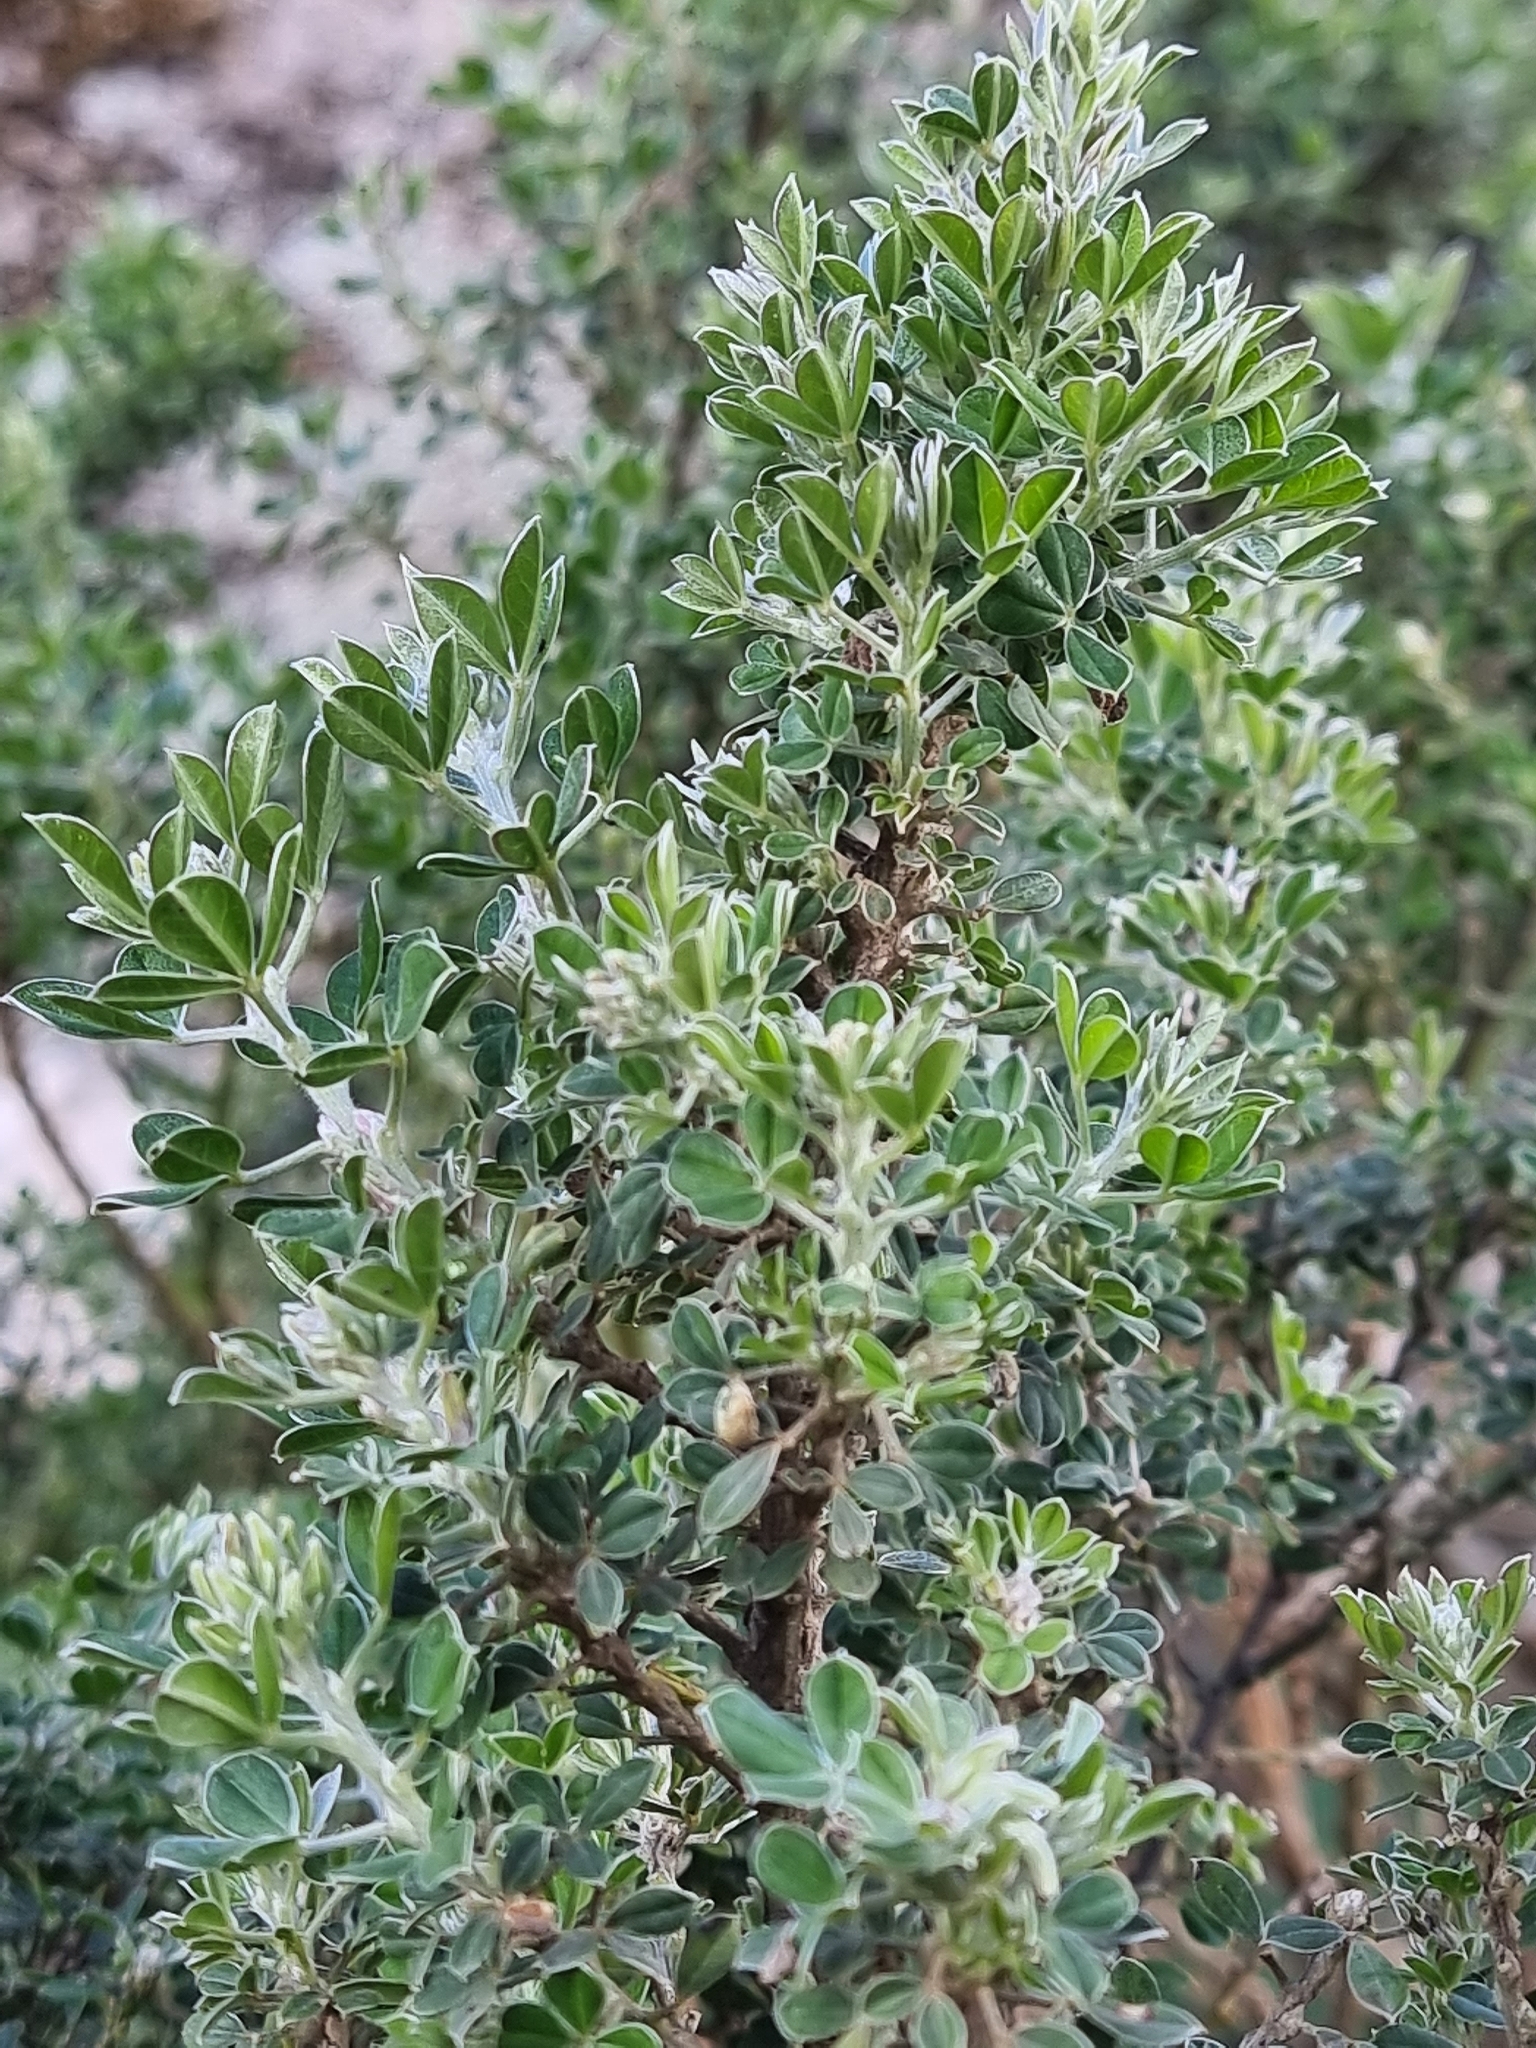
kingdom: Plantae
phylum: Tracheophyta
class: Magnoliopsida
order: Fabales
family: Fabaceae
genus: Genista
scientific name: Genista maderensis
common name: Madeira dyer's greenweed
